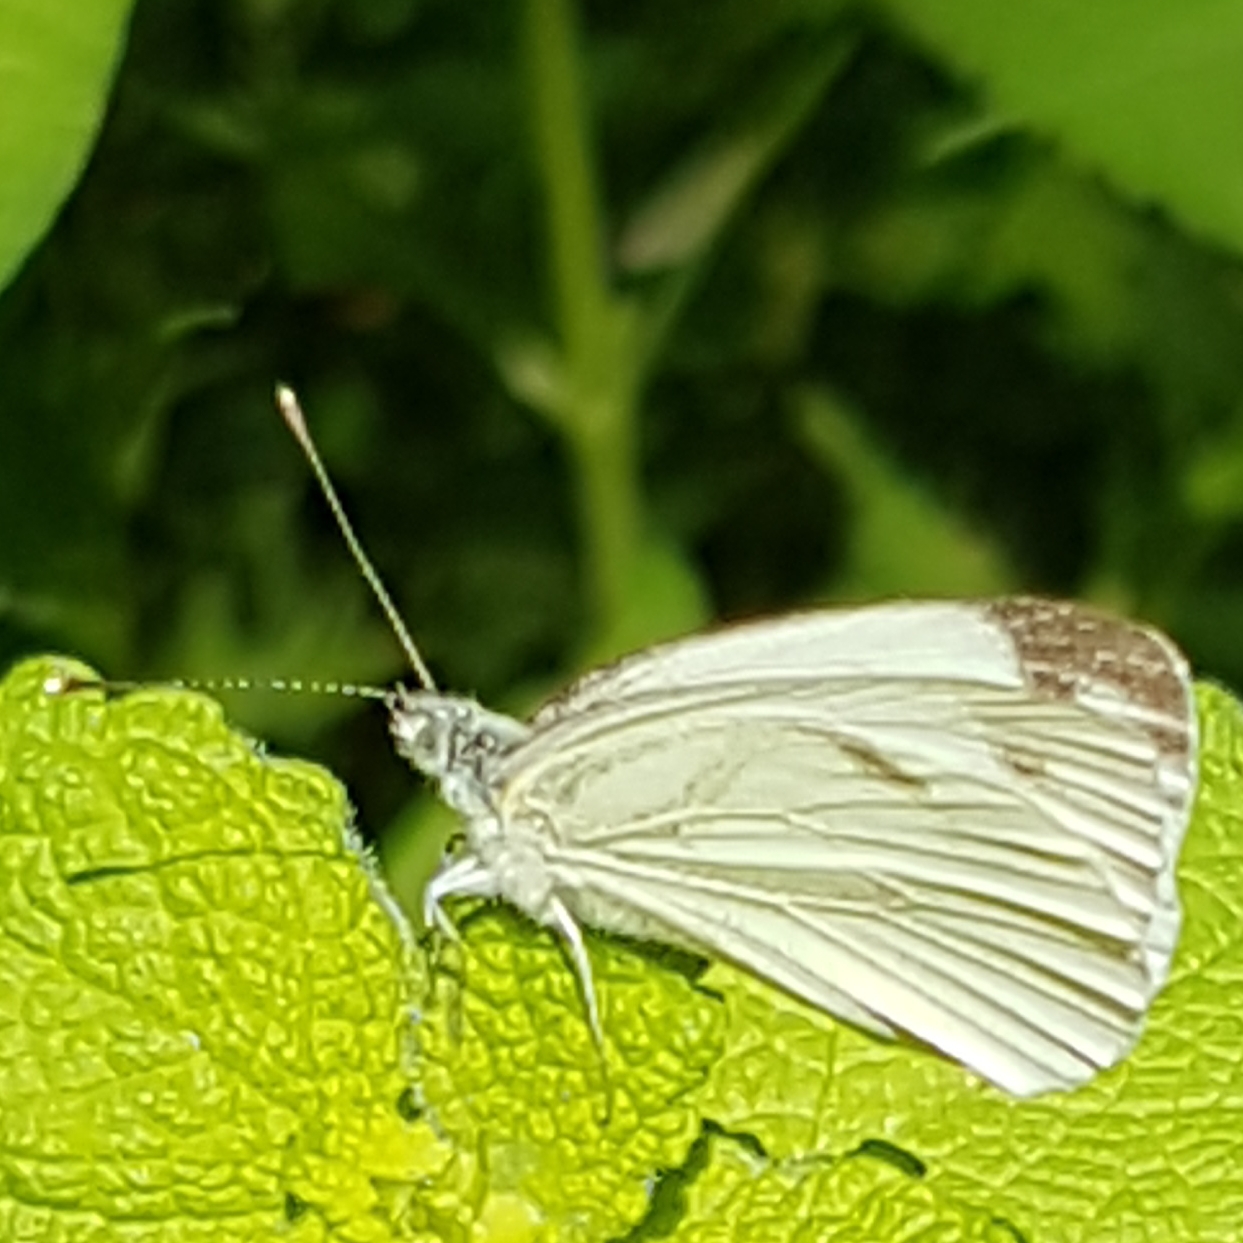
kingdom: Animalia
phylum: Arthropoda
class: Insecta
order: Lepidoptera
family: Pieridae
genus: Pieris
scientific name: Pieris napi
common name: Green-veined white
